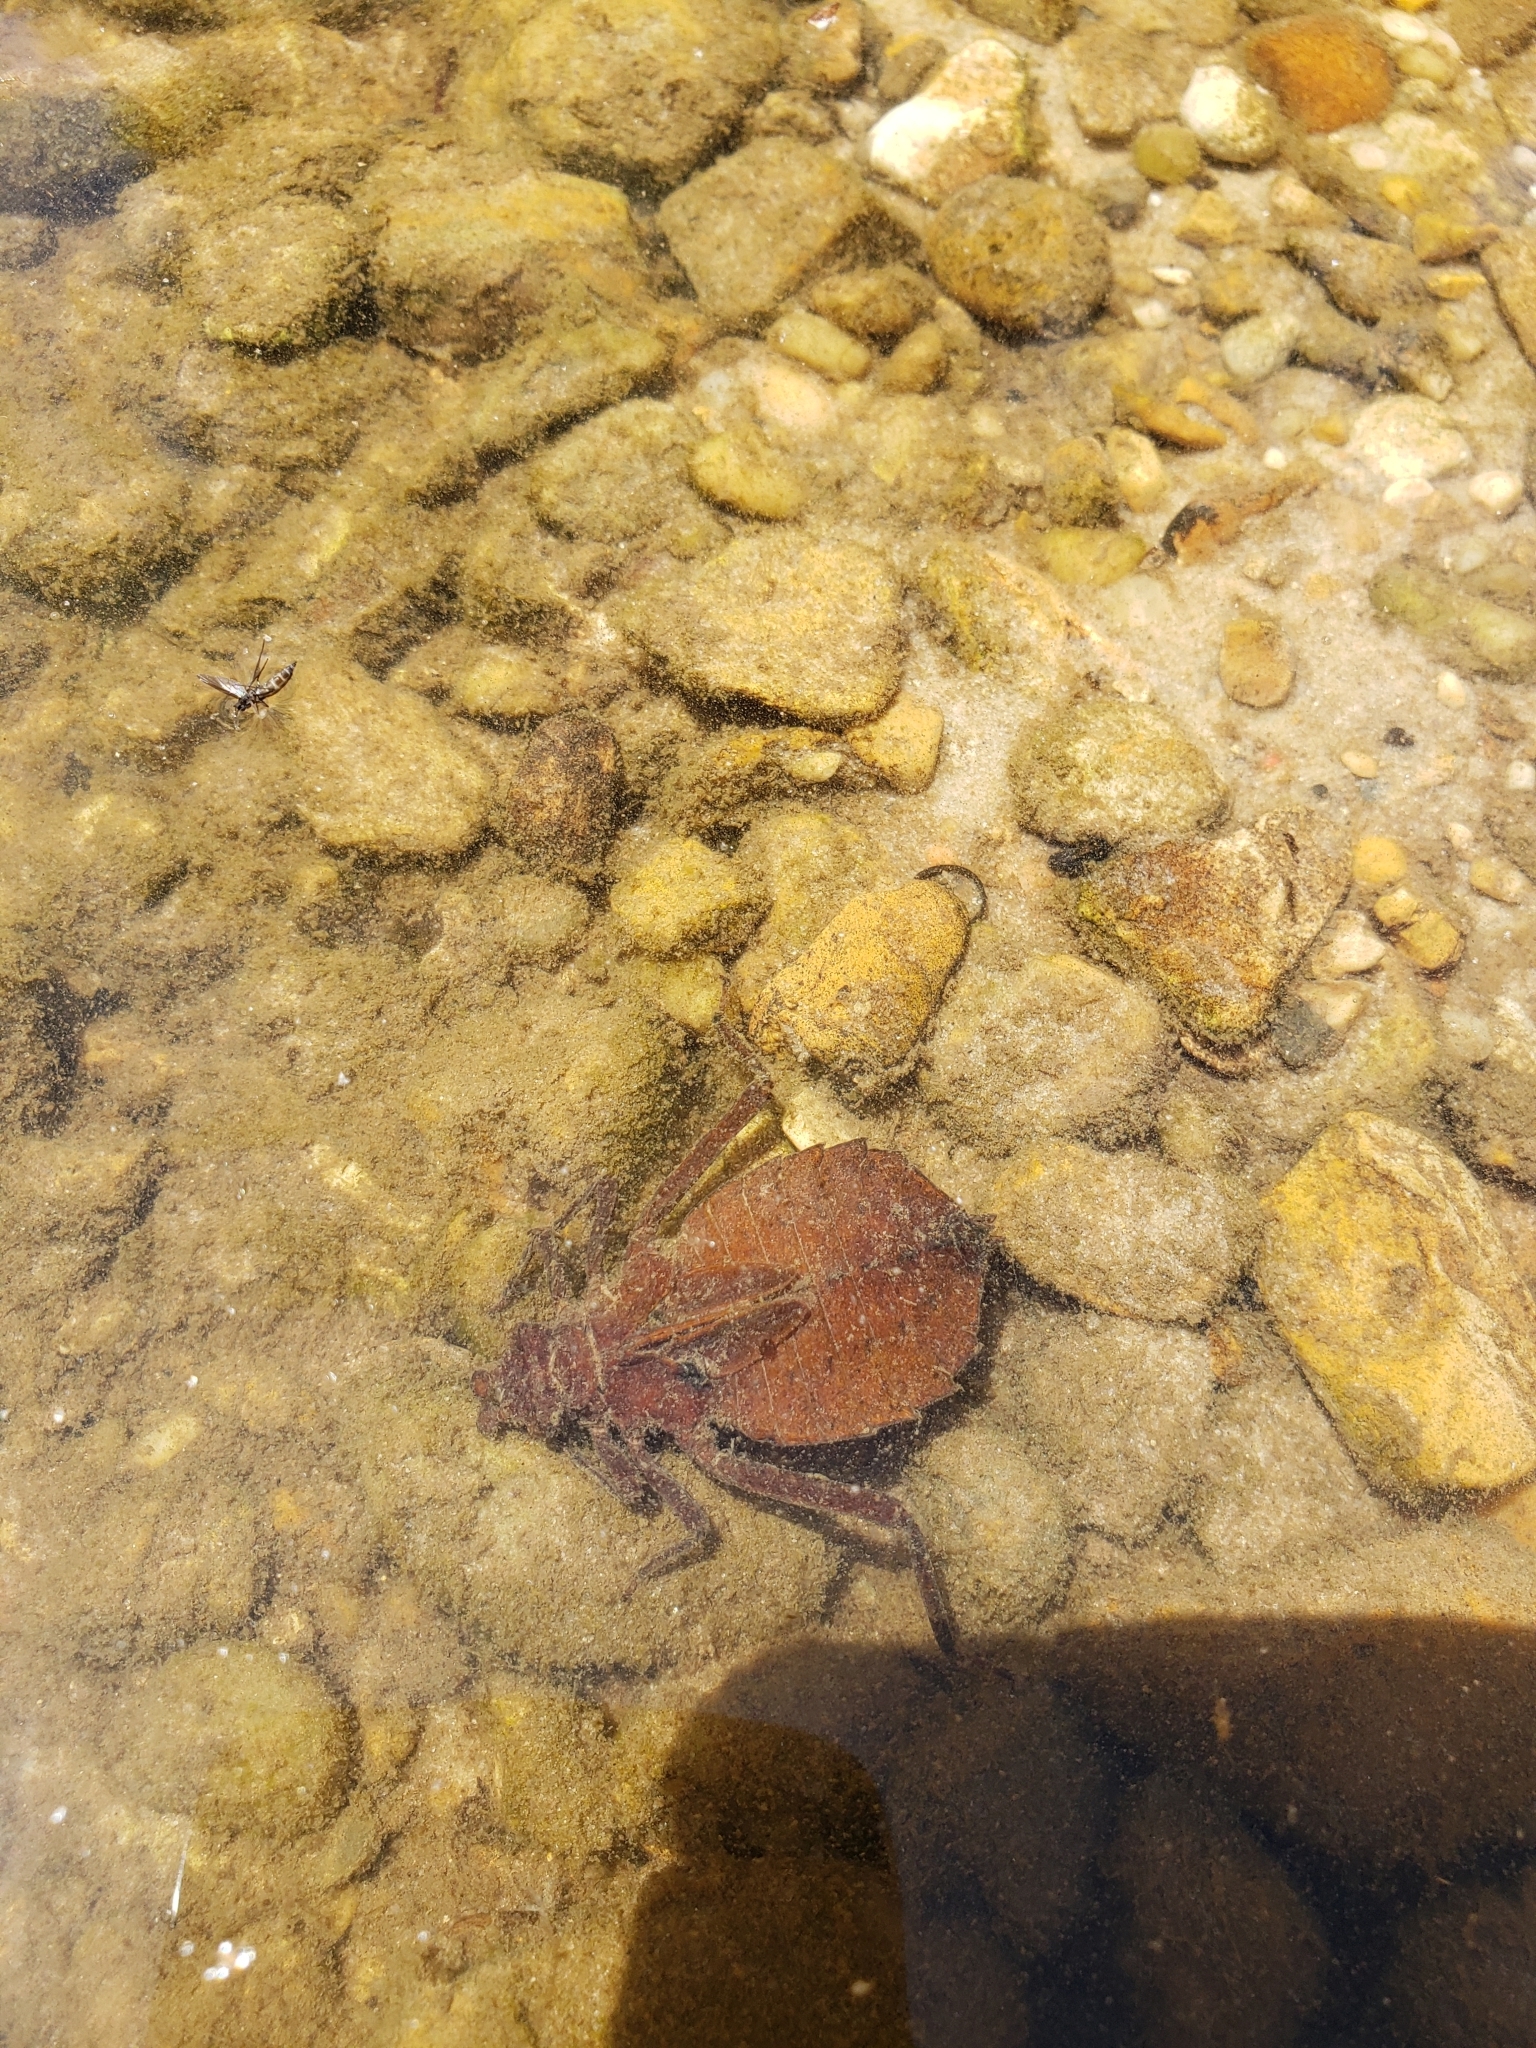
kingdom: Animalia
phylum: Arthropoda
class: Insecta
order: Odonata
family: Gomphidae
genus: Hagenius
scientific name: Hagenius brevistylus
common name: Dragonhunter
